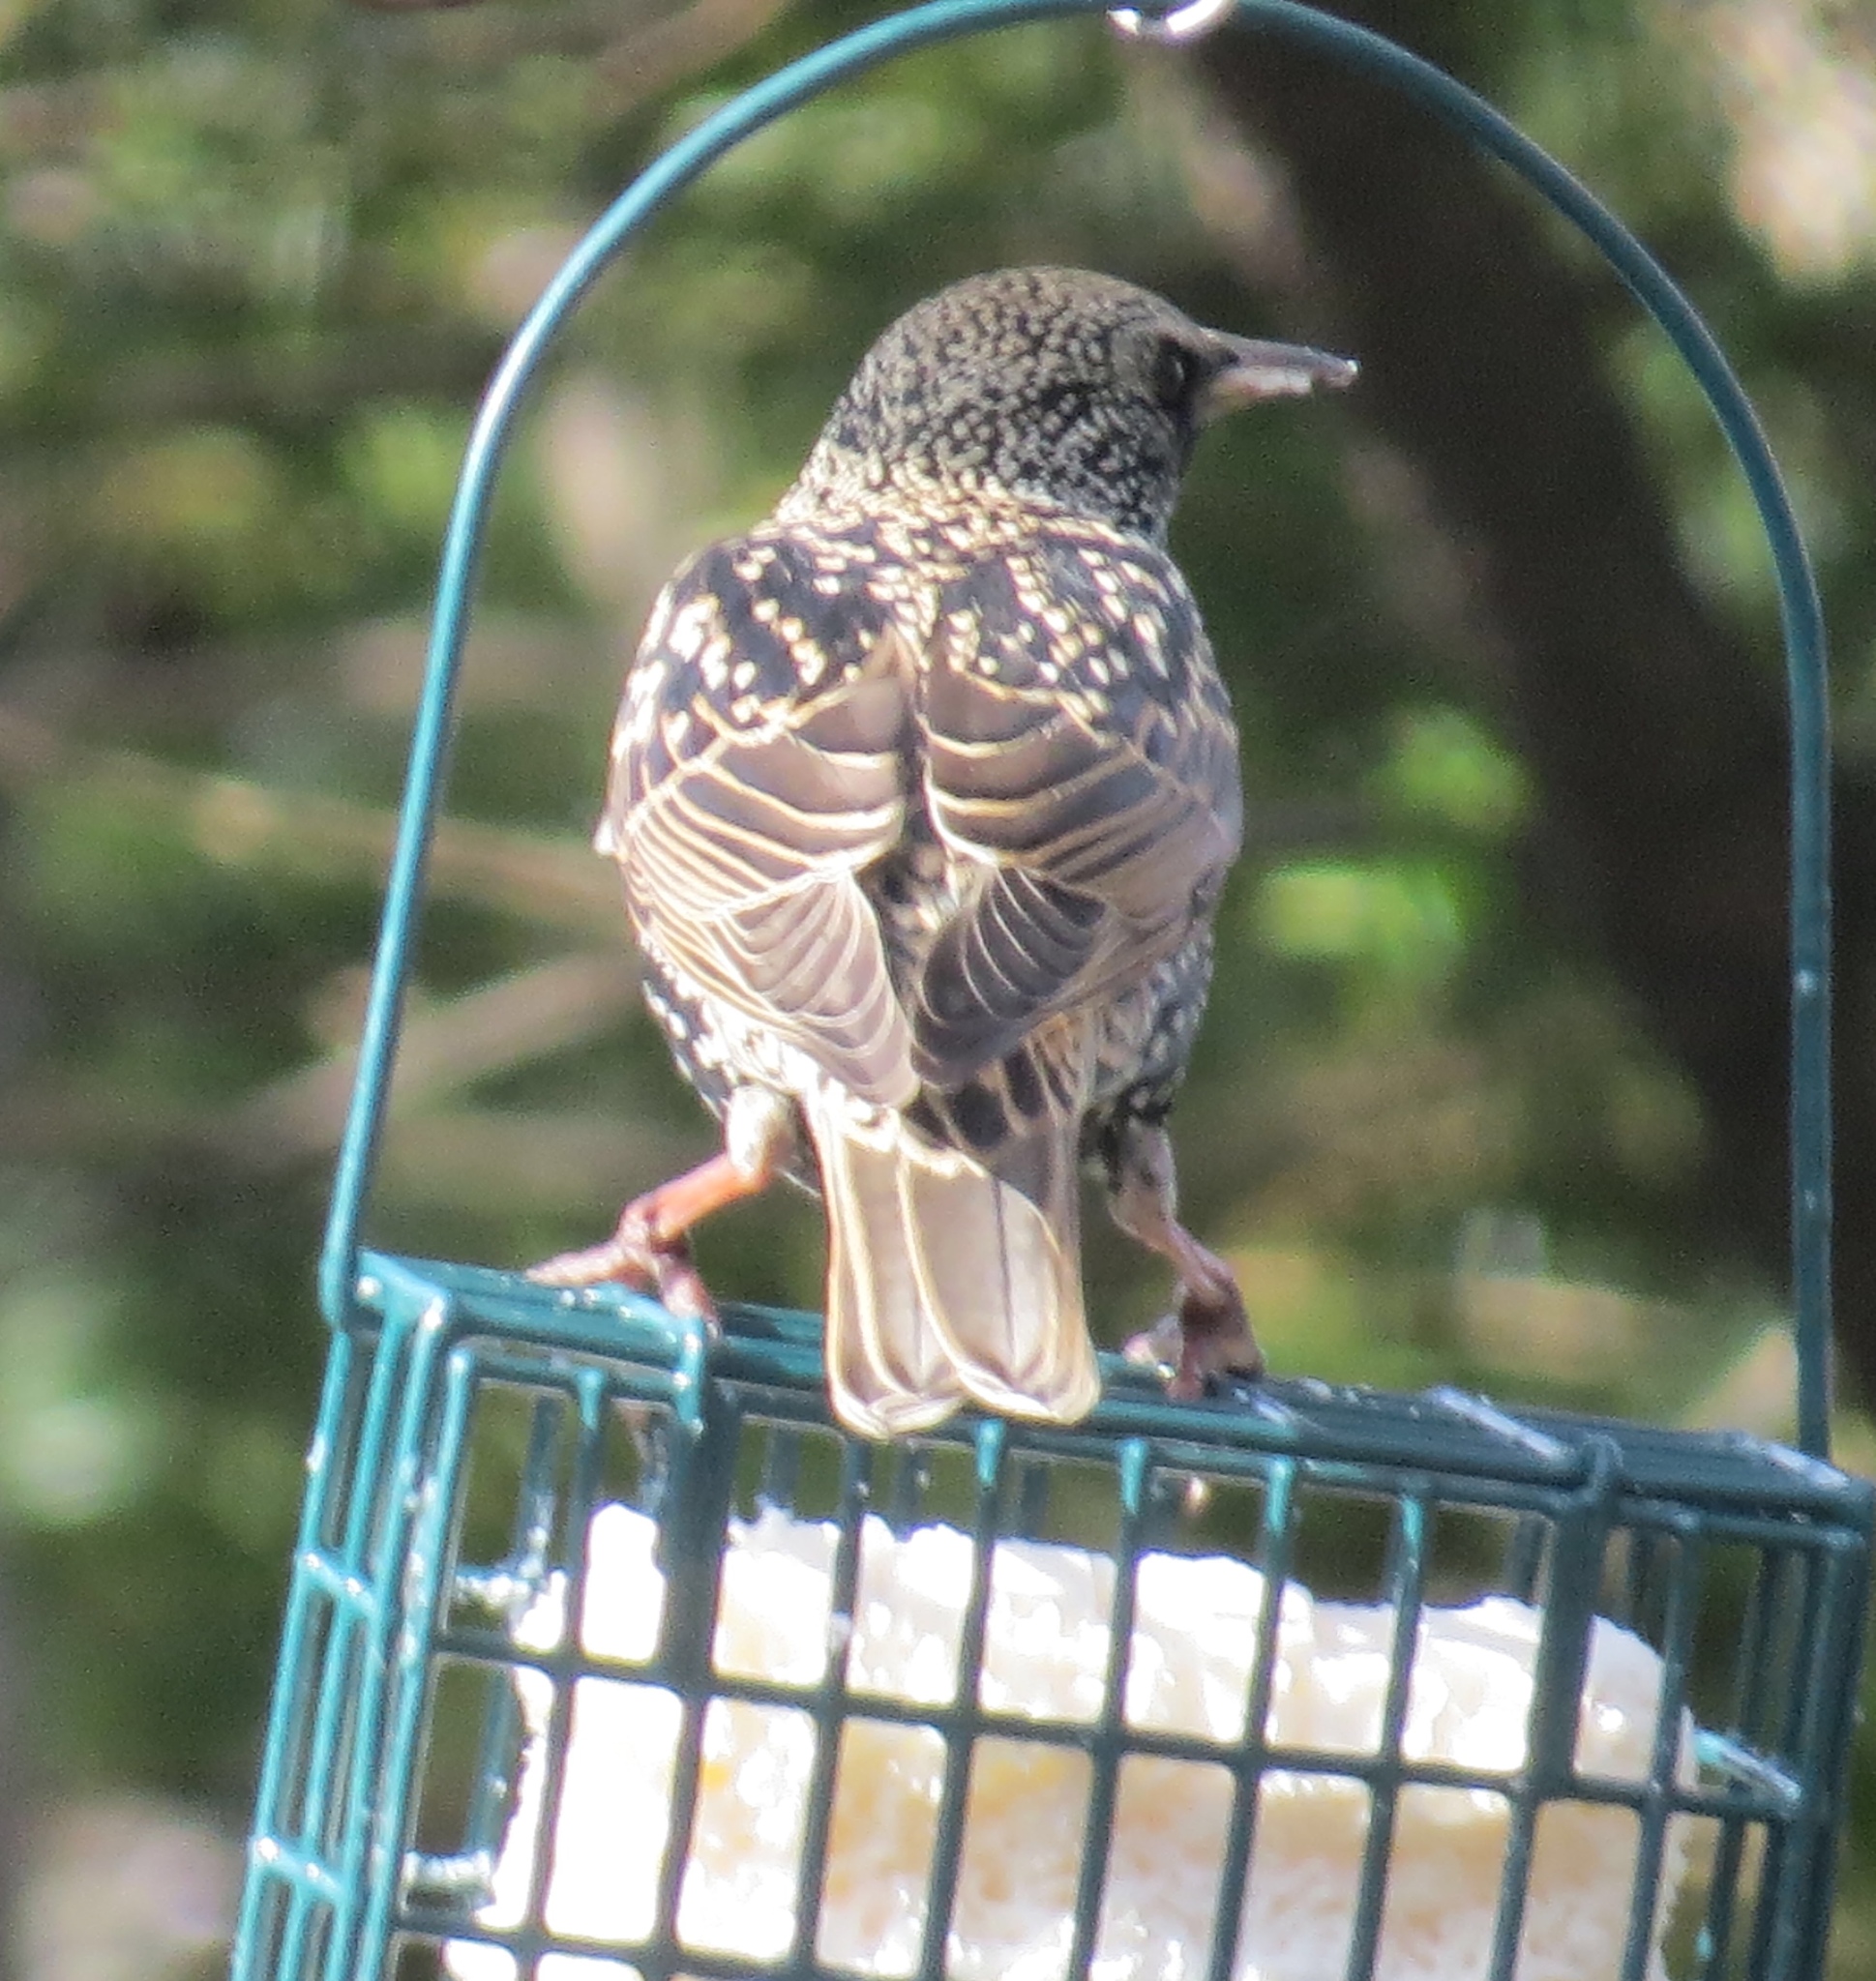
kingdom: Animalia
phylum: Chordata
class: Aves
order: Passeriformes
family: Sturnidae
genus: Sturnus
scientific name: Sturnus vulgaris
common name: Common starling
